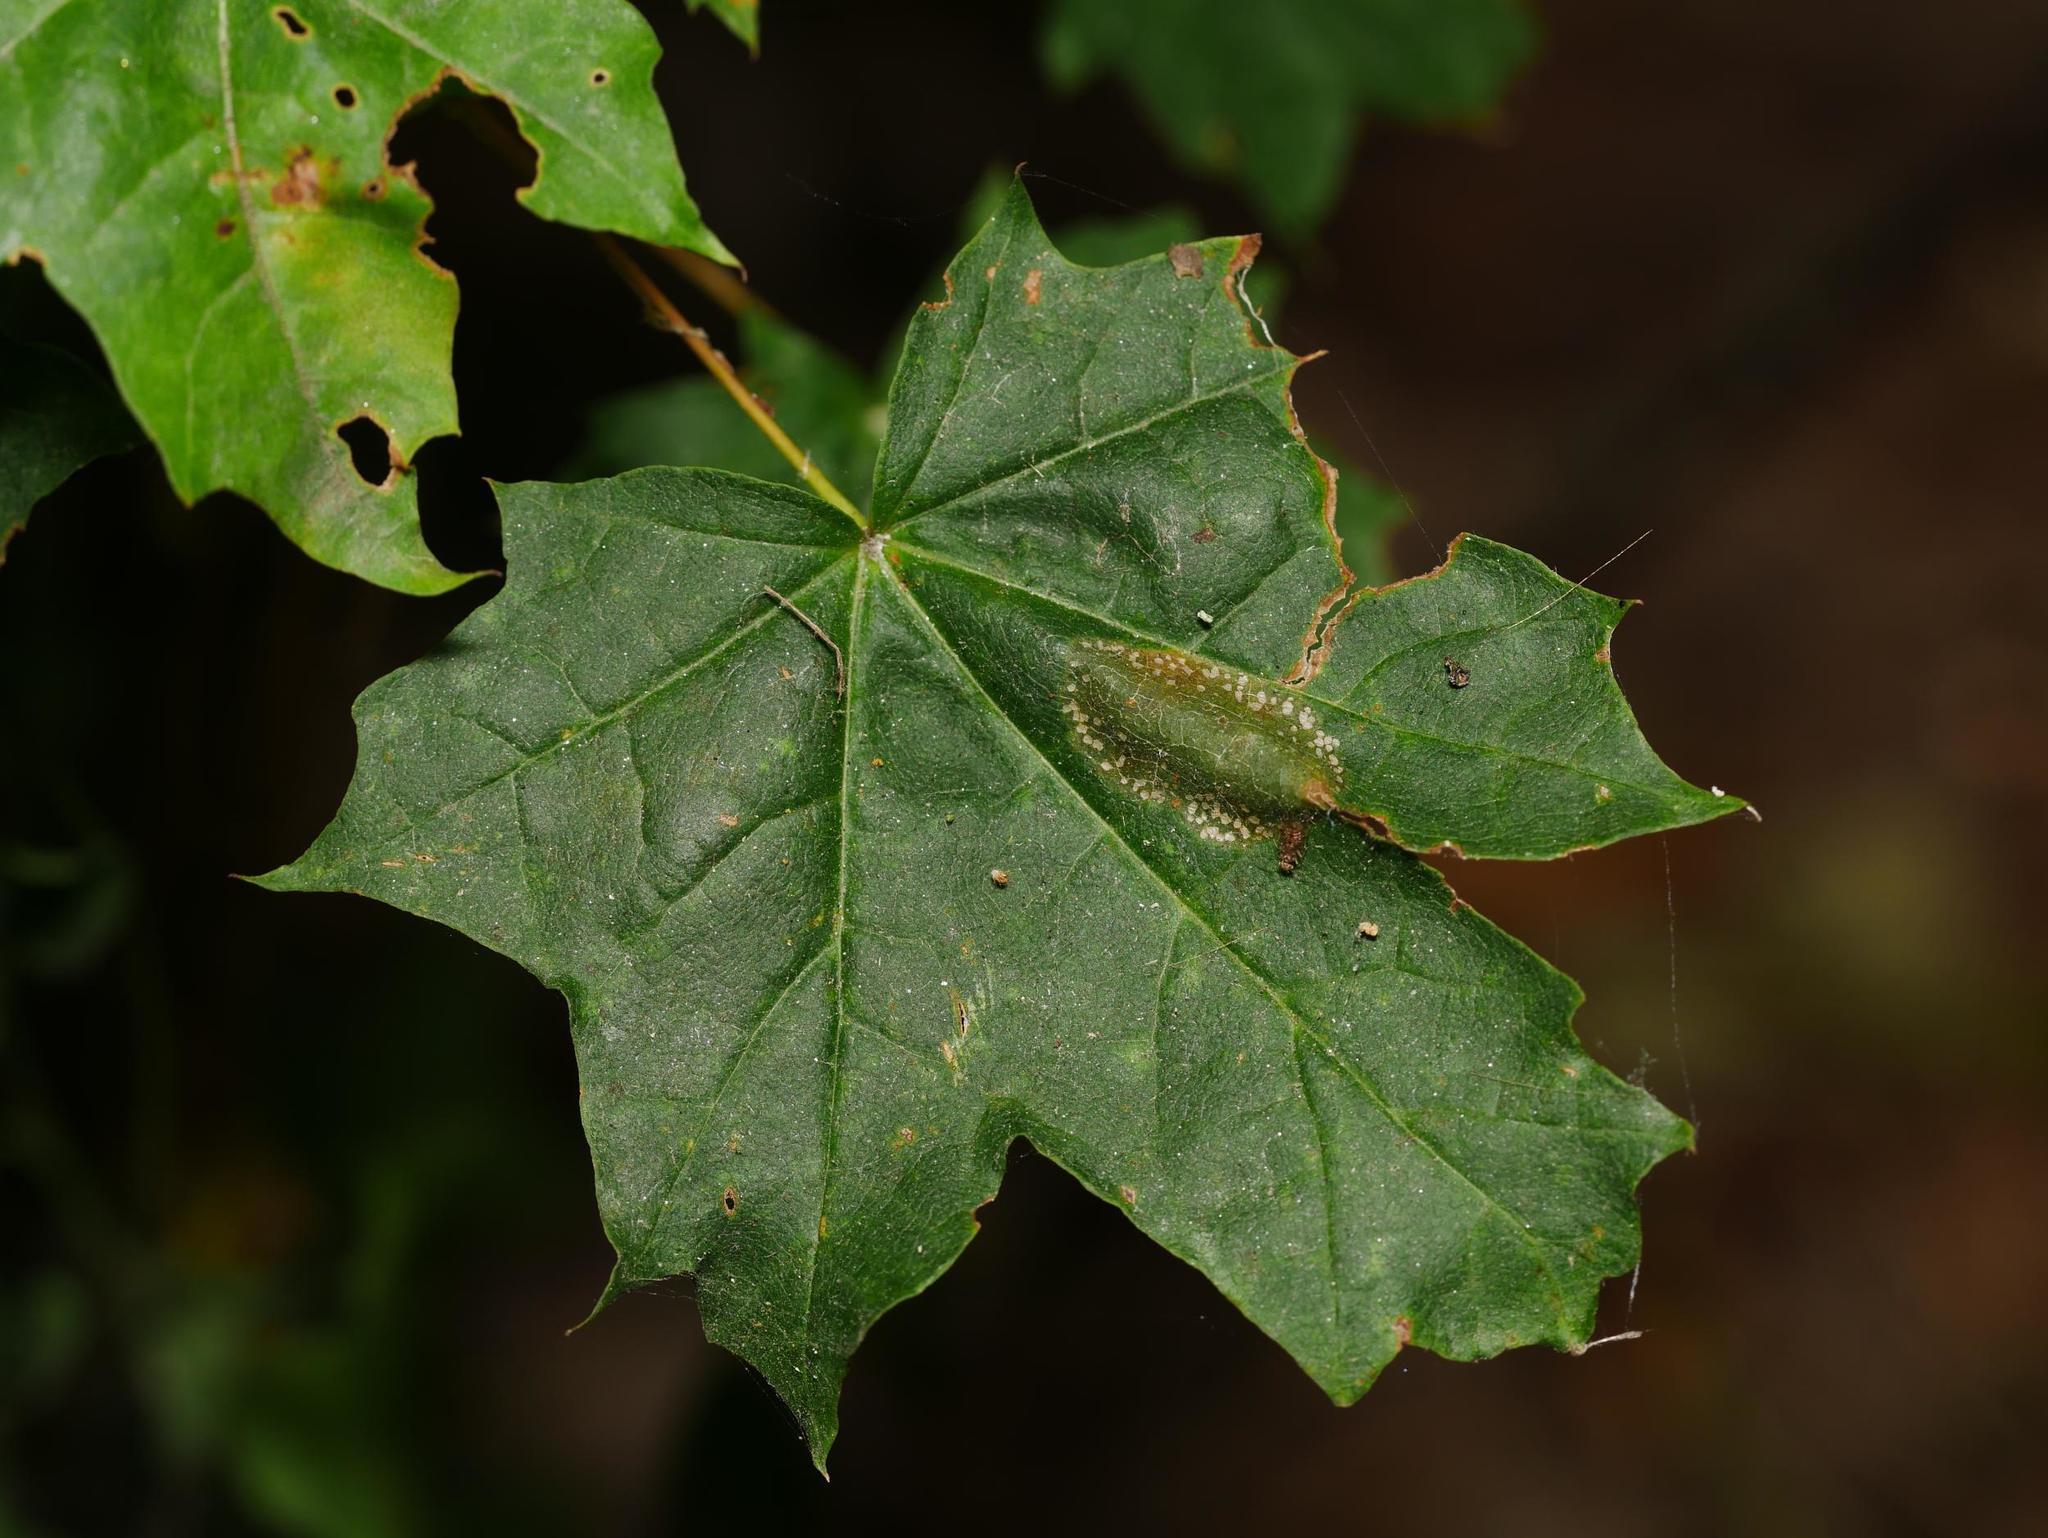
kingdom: Plantae
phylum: Tracheophyta
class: Magnoliopsida
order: Sapindales
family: Sapindaceae
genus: Acer
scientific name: Acer platanoides
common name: Norway maple
